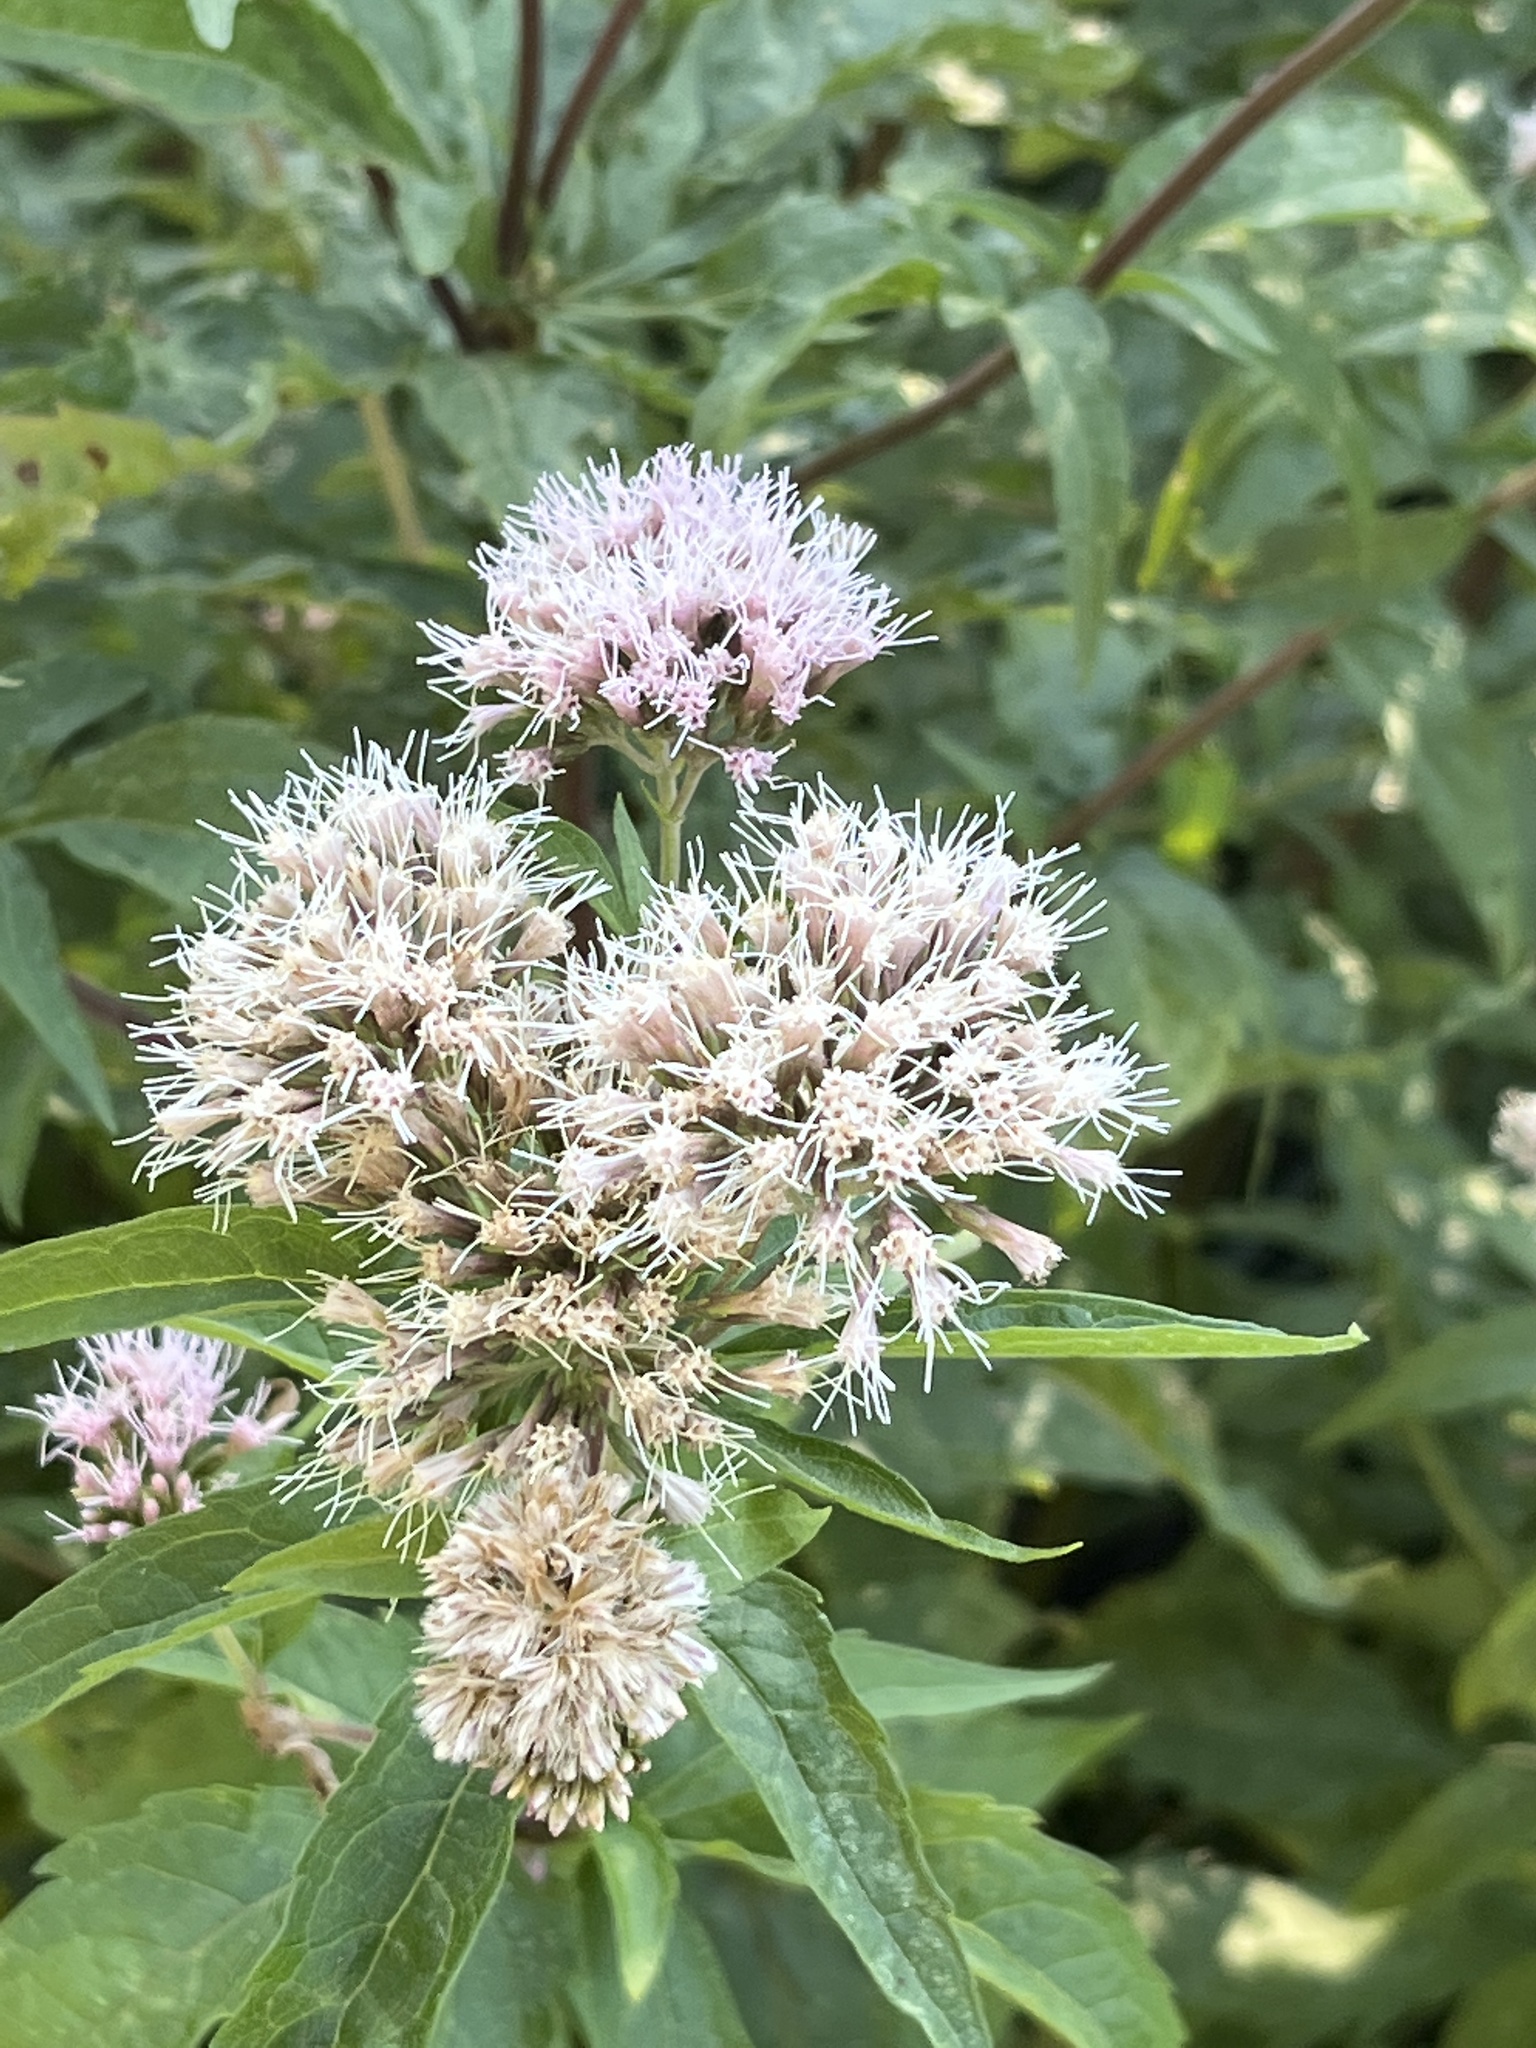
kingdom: Plantae
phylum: Tracheophyta
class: Magnoliopsida
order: Asterales
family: Asteraceae
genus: Eupatorium
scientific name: Eupatorium cannabinum
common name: Hemp-agrimony
